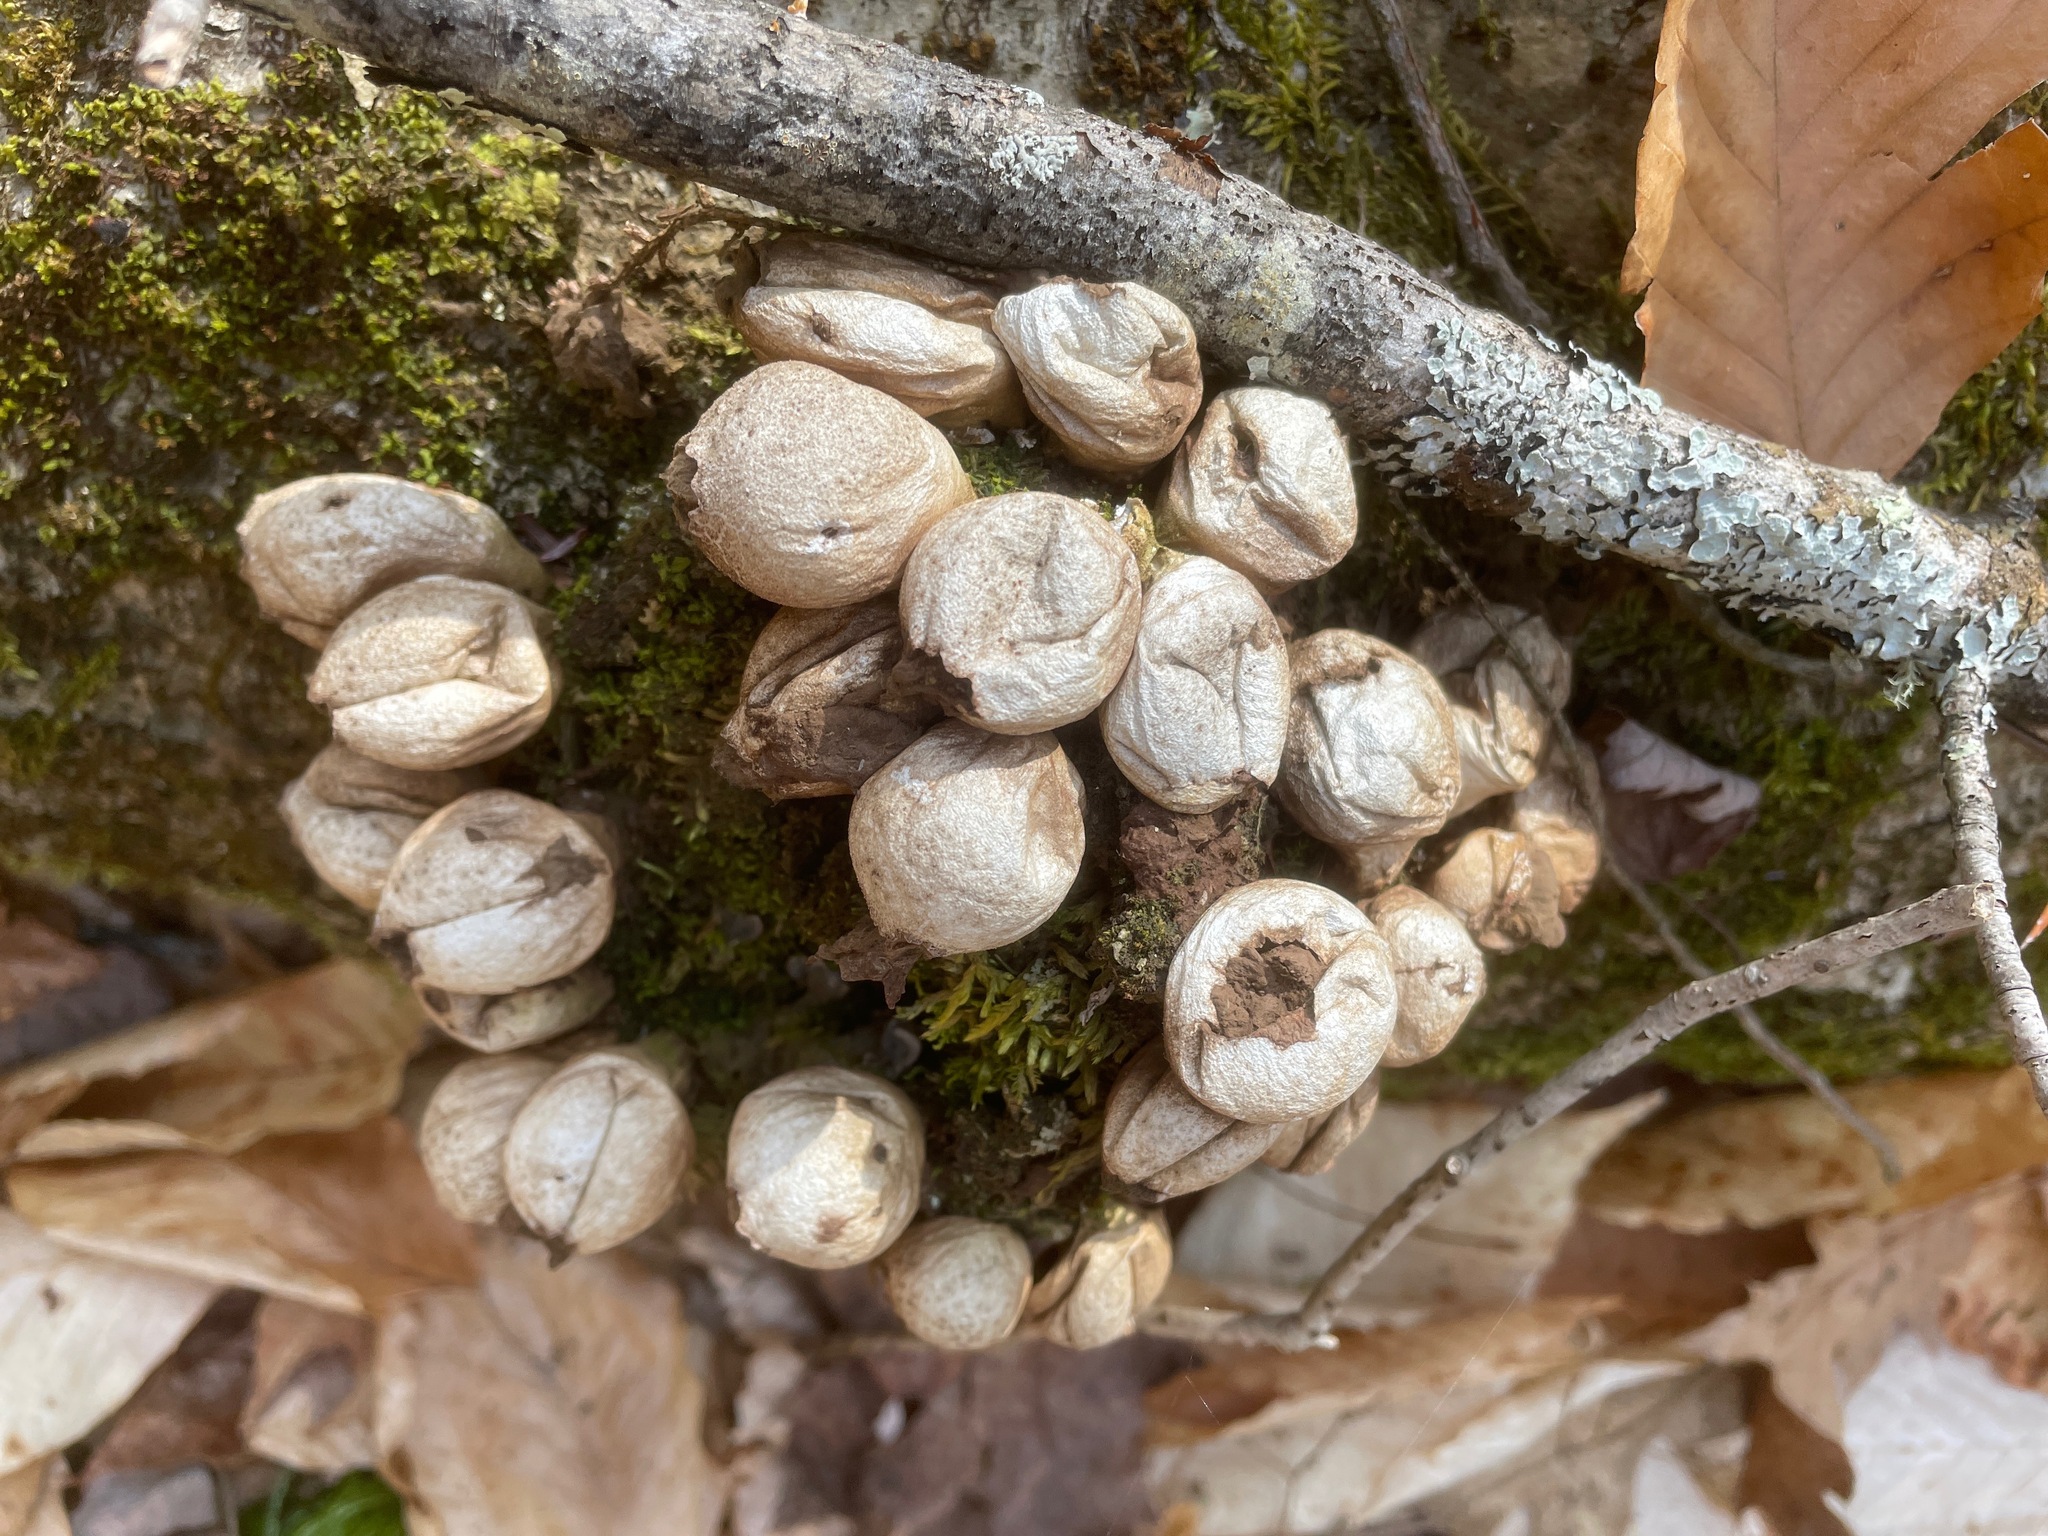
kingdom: Fungi
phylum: Basidiomycota
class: Agaricomycetes
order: Agaricales
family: Lycoperdaceae
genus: Apioperdon
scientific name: Apioperdon pyriforme
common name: Pear-shaped puffball
